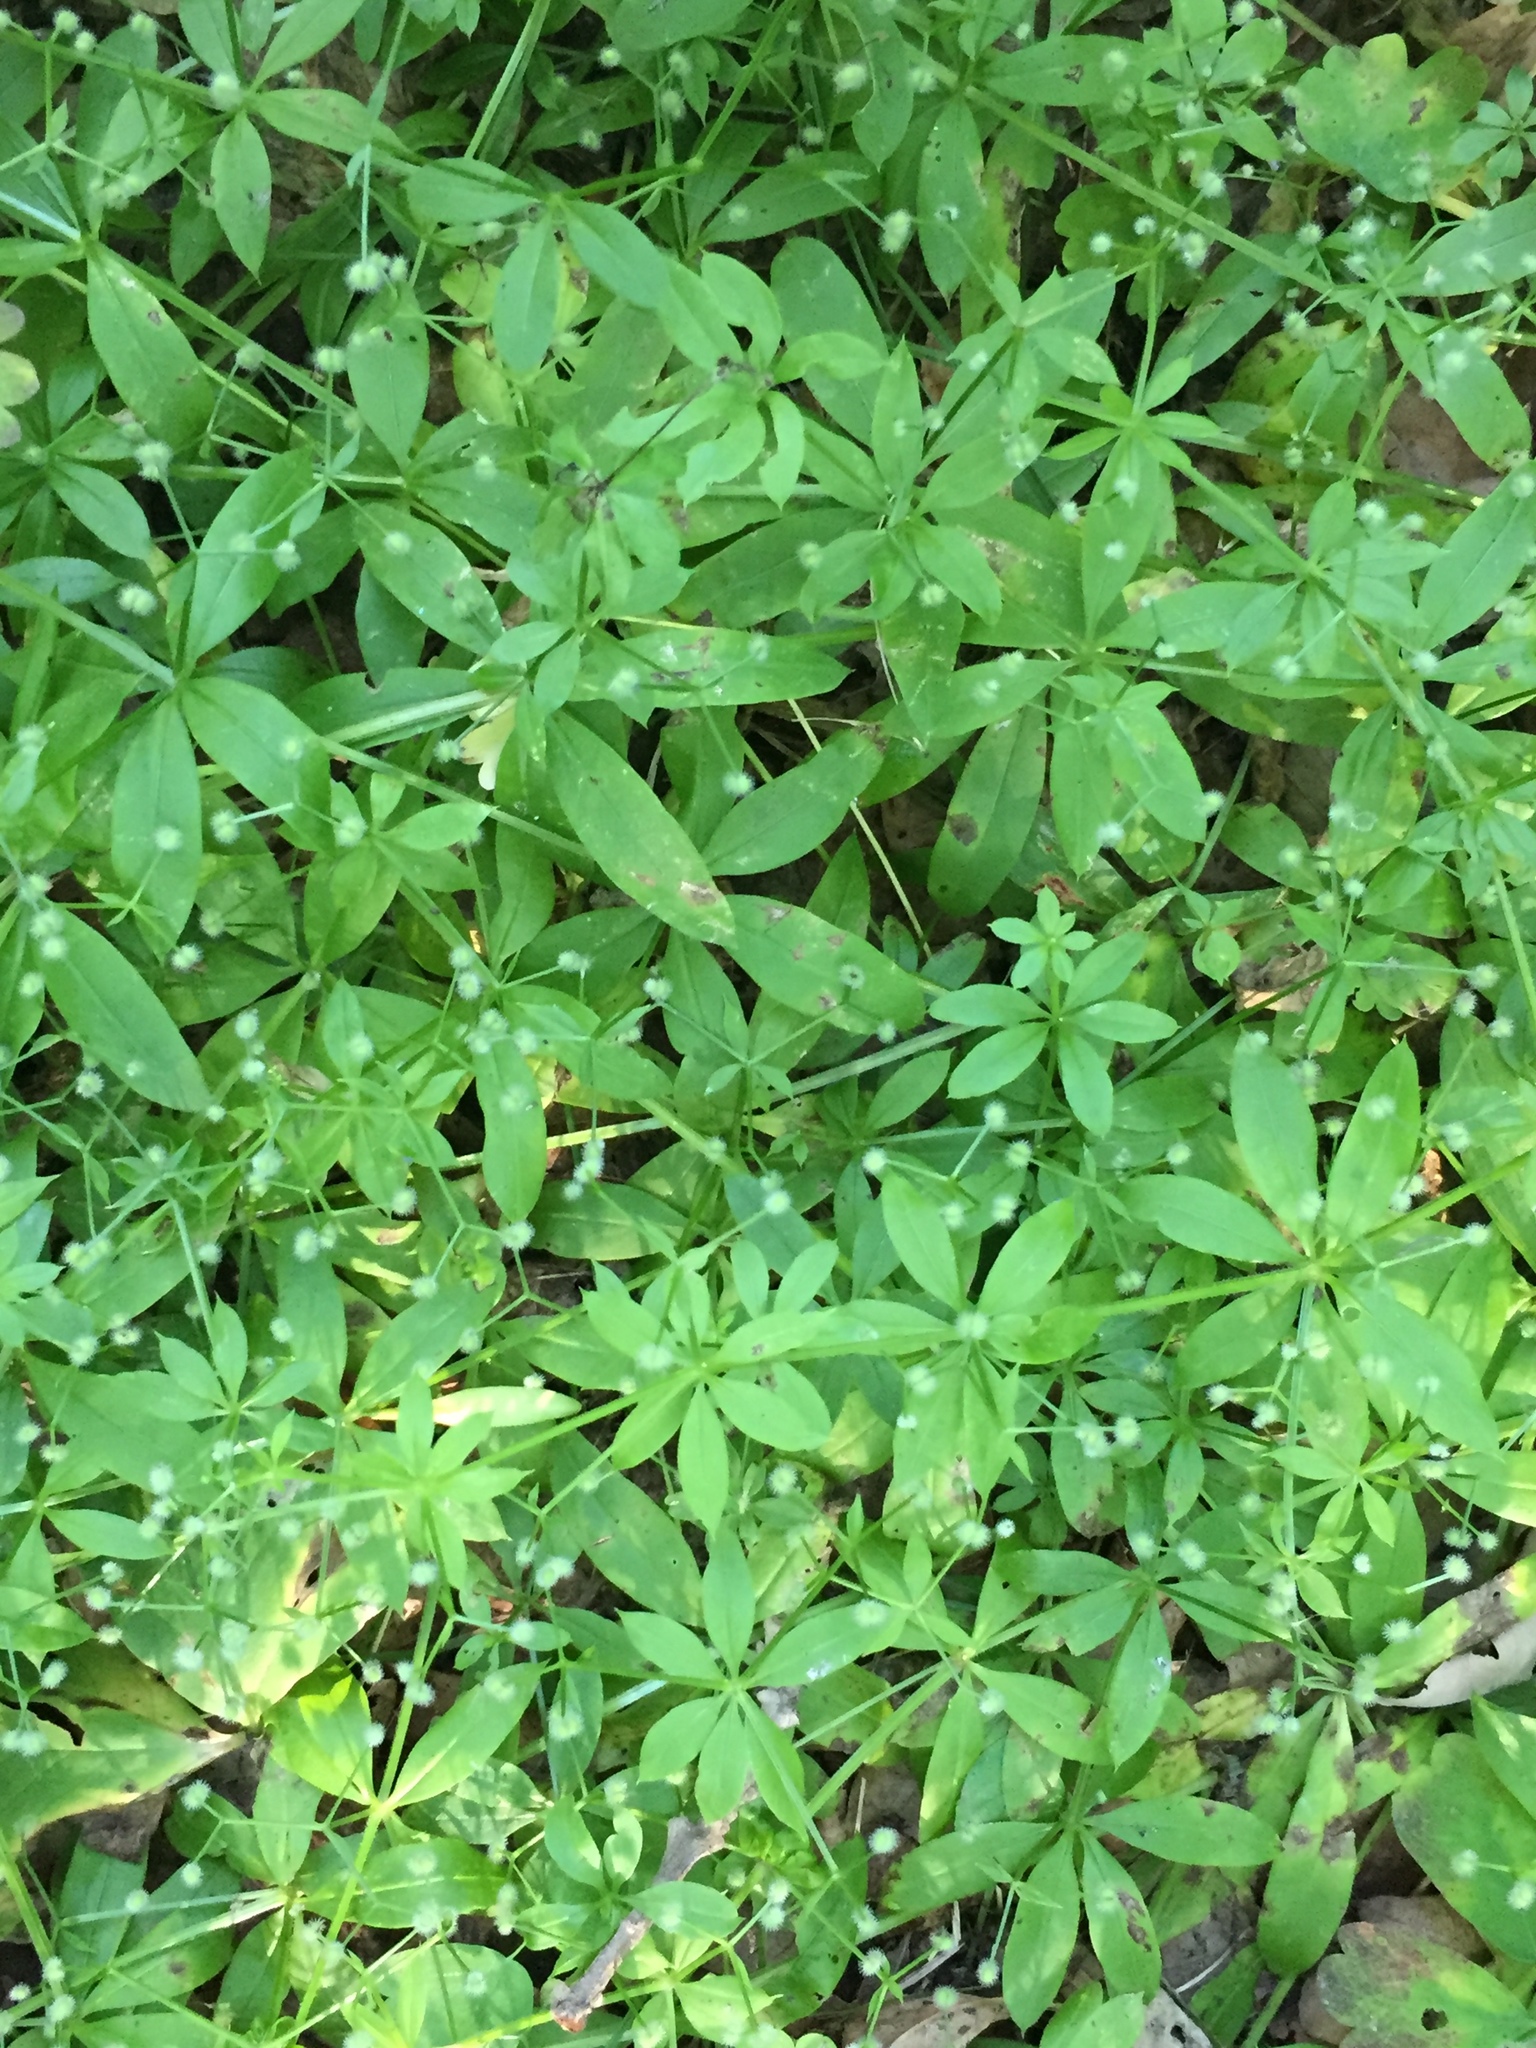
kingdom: Plantae
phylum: Tracheophyta
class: Magnoliopsida
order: Gentianales
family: Rubiaceae
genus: Galium
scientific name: Galium triflorum
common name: Fragrant bedstraw
